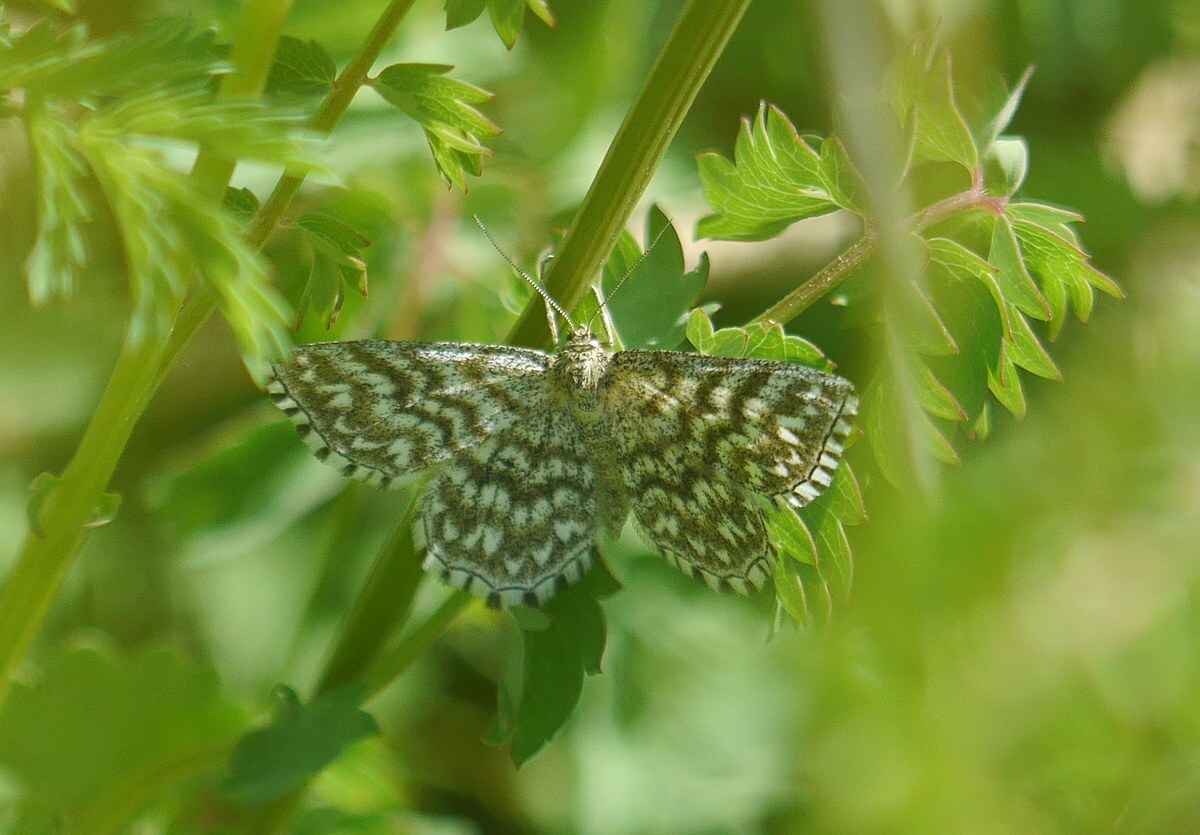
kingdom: Animalia
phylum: Arthropoda
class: Insecta
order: Lepidoptera
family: Geometridae
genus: Scopula
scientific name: Scopula tessellaria
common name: Dusky-brown wave
